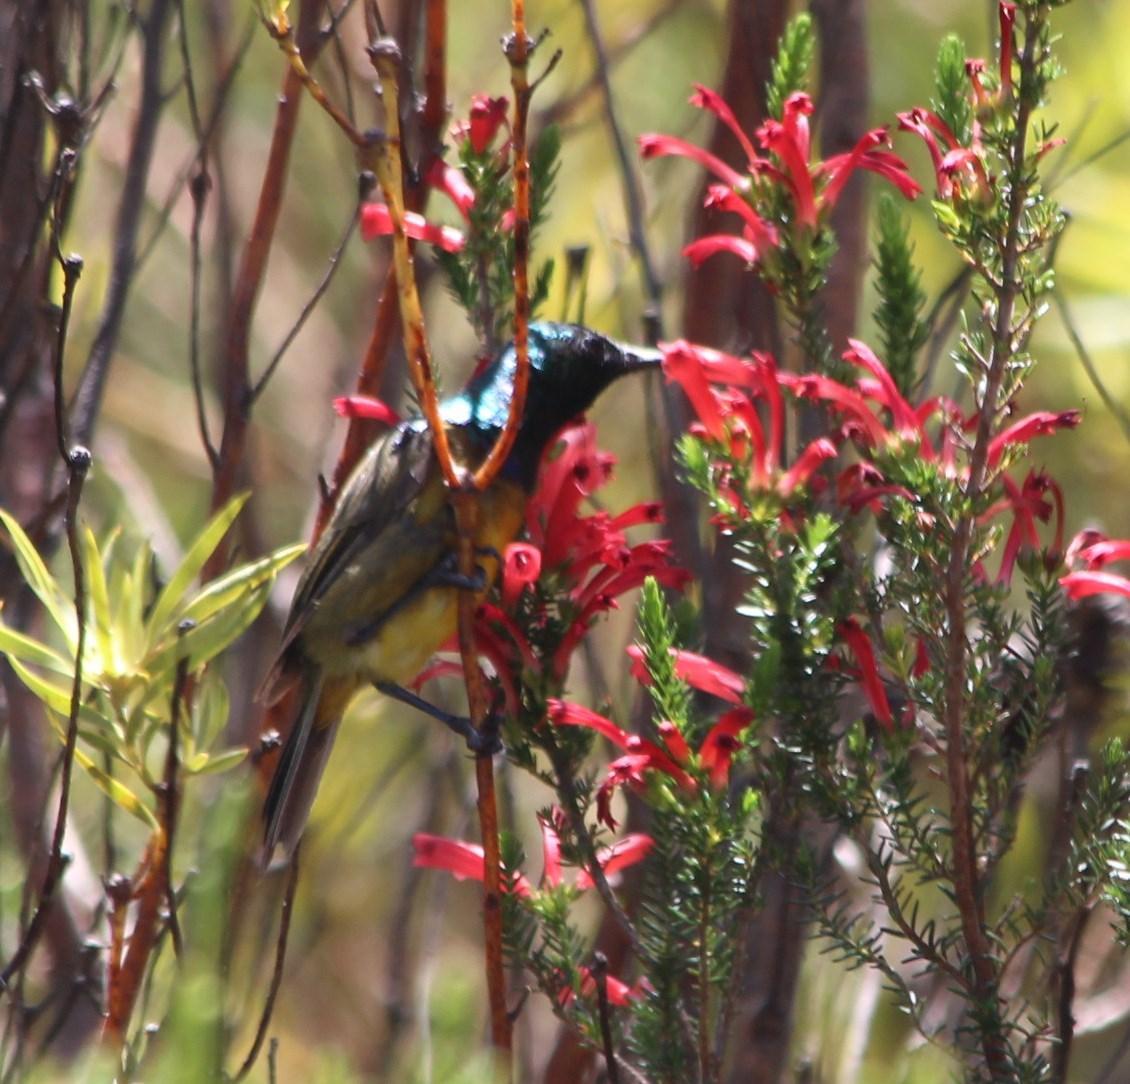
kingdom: Plantae
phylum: Tracheophyta
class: Magnoliopsida
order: Ericales
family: Ericaceae
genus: Erica
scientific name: Erica cruenta
